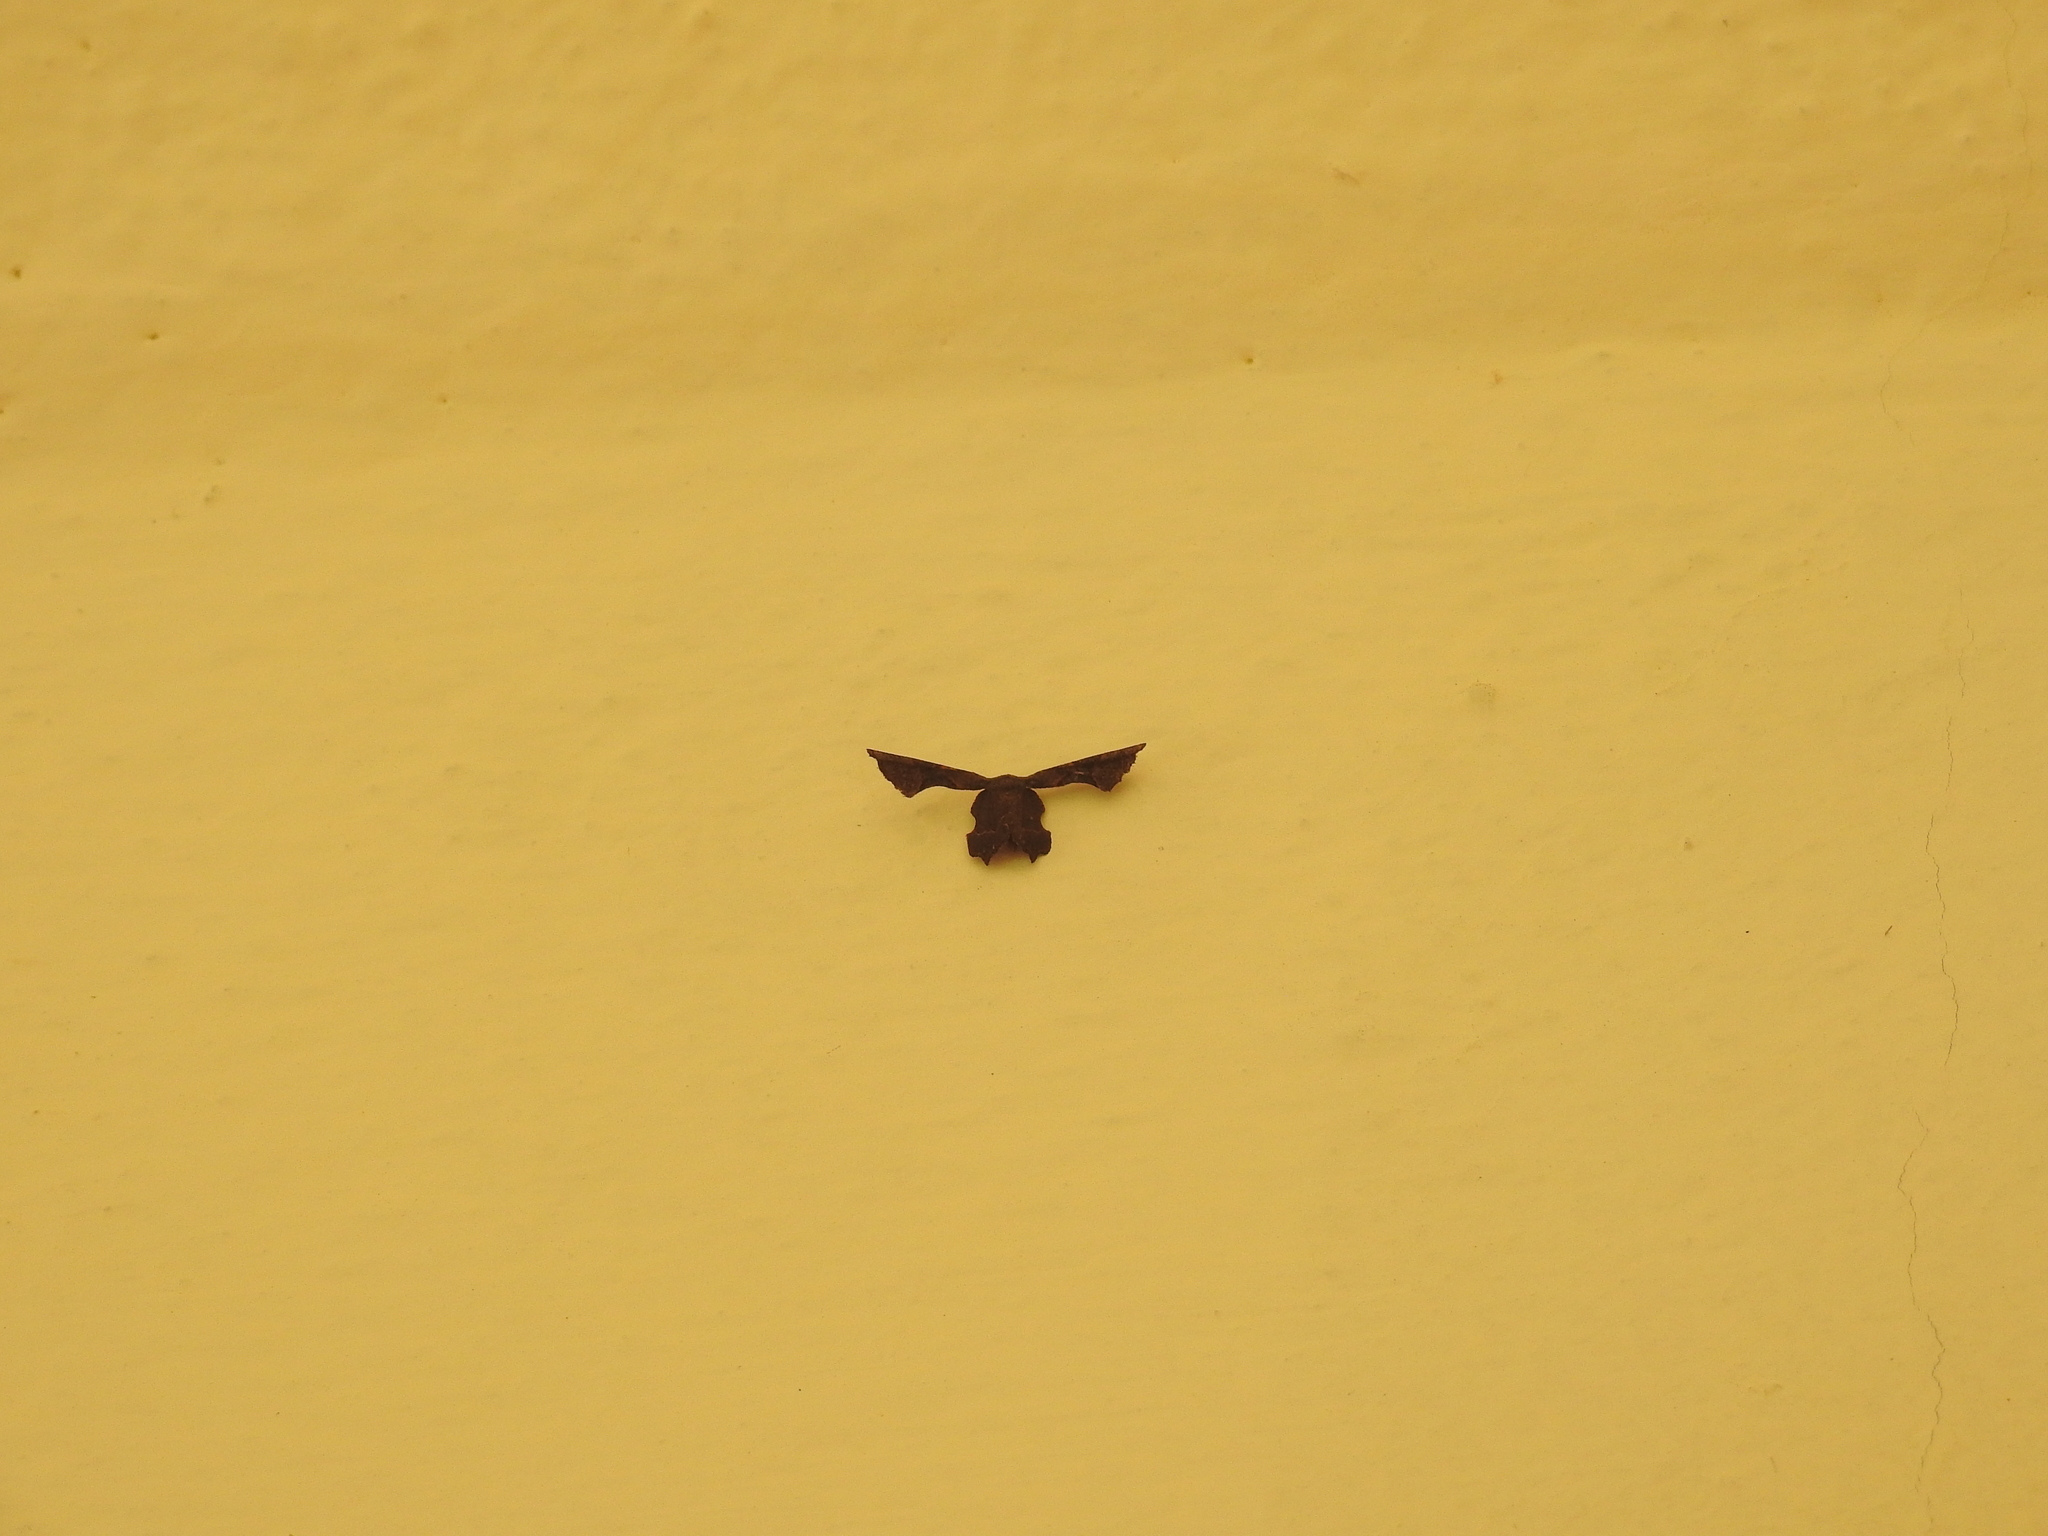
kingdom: Animalia
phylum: Arthropoda
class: Insecta
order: Lepidoptera
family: Uraniidae
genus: Monobolodes
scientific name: Monobolodes prunaria
